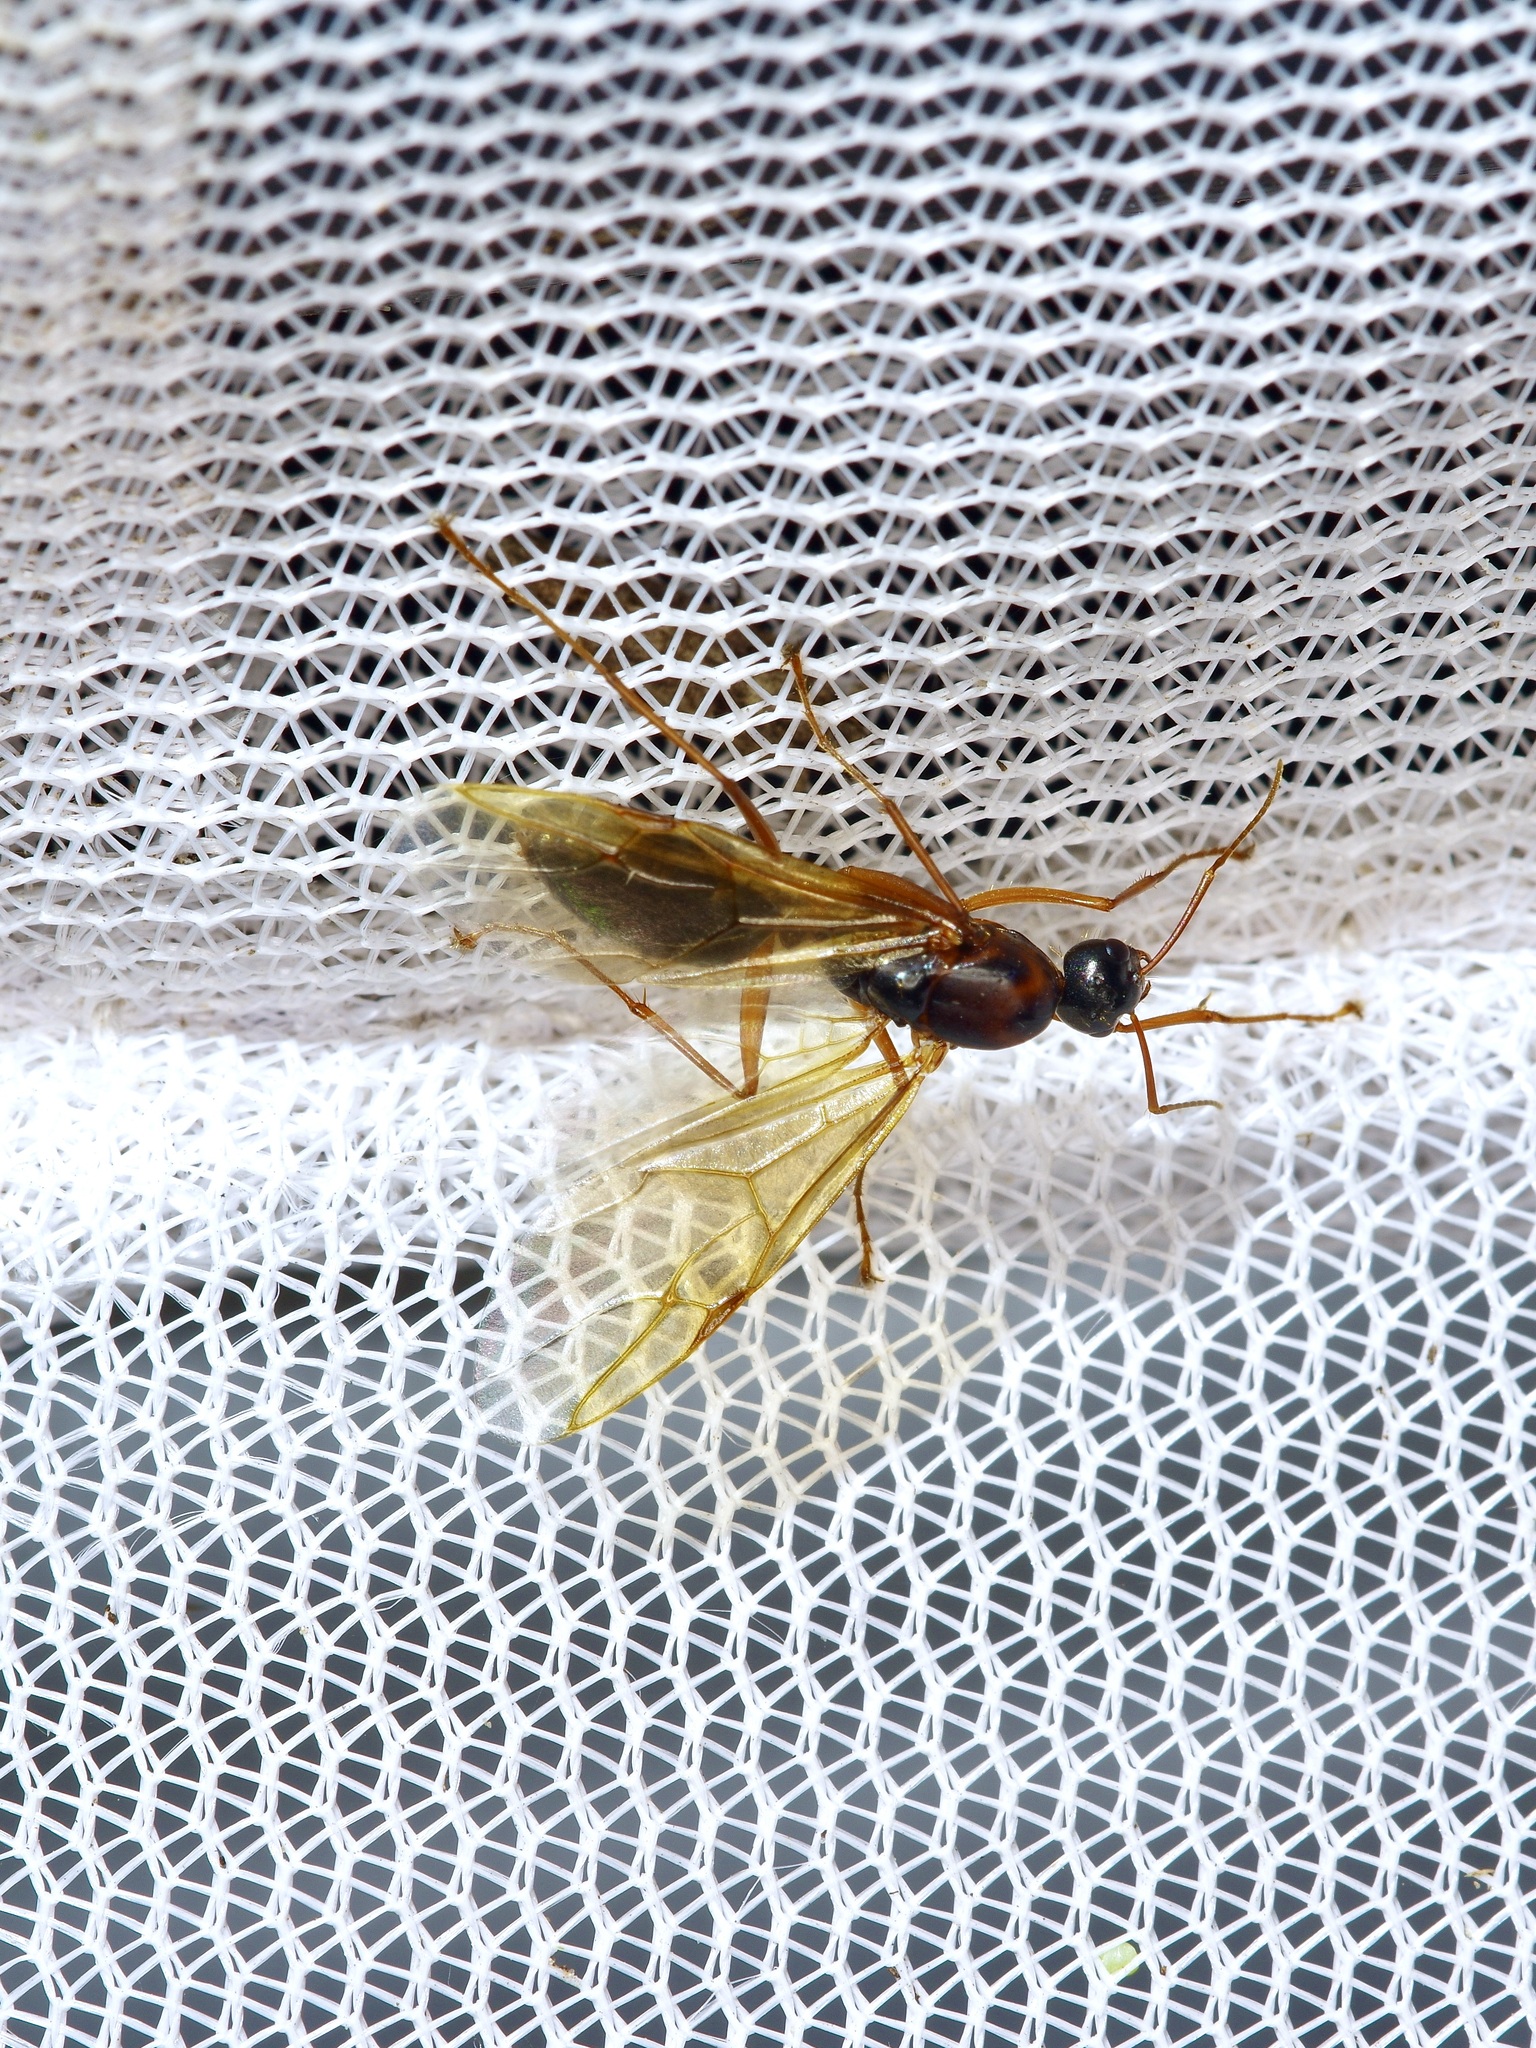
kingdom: Animalia
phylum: Arthropoda
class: Insecta
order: Hymenoptera
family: Formicidae
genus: Camponotus
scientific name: Camponotus texanus
